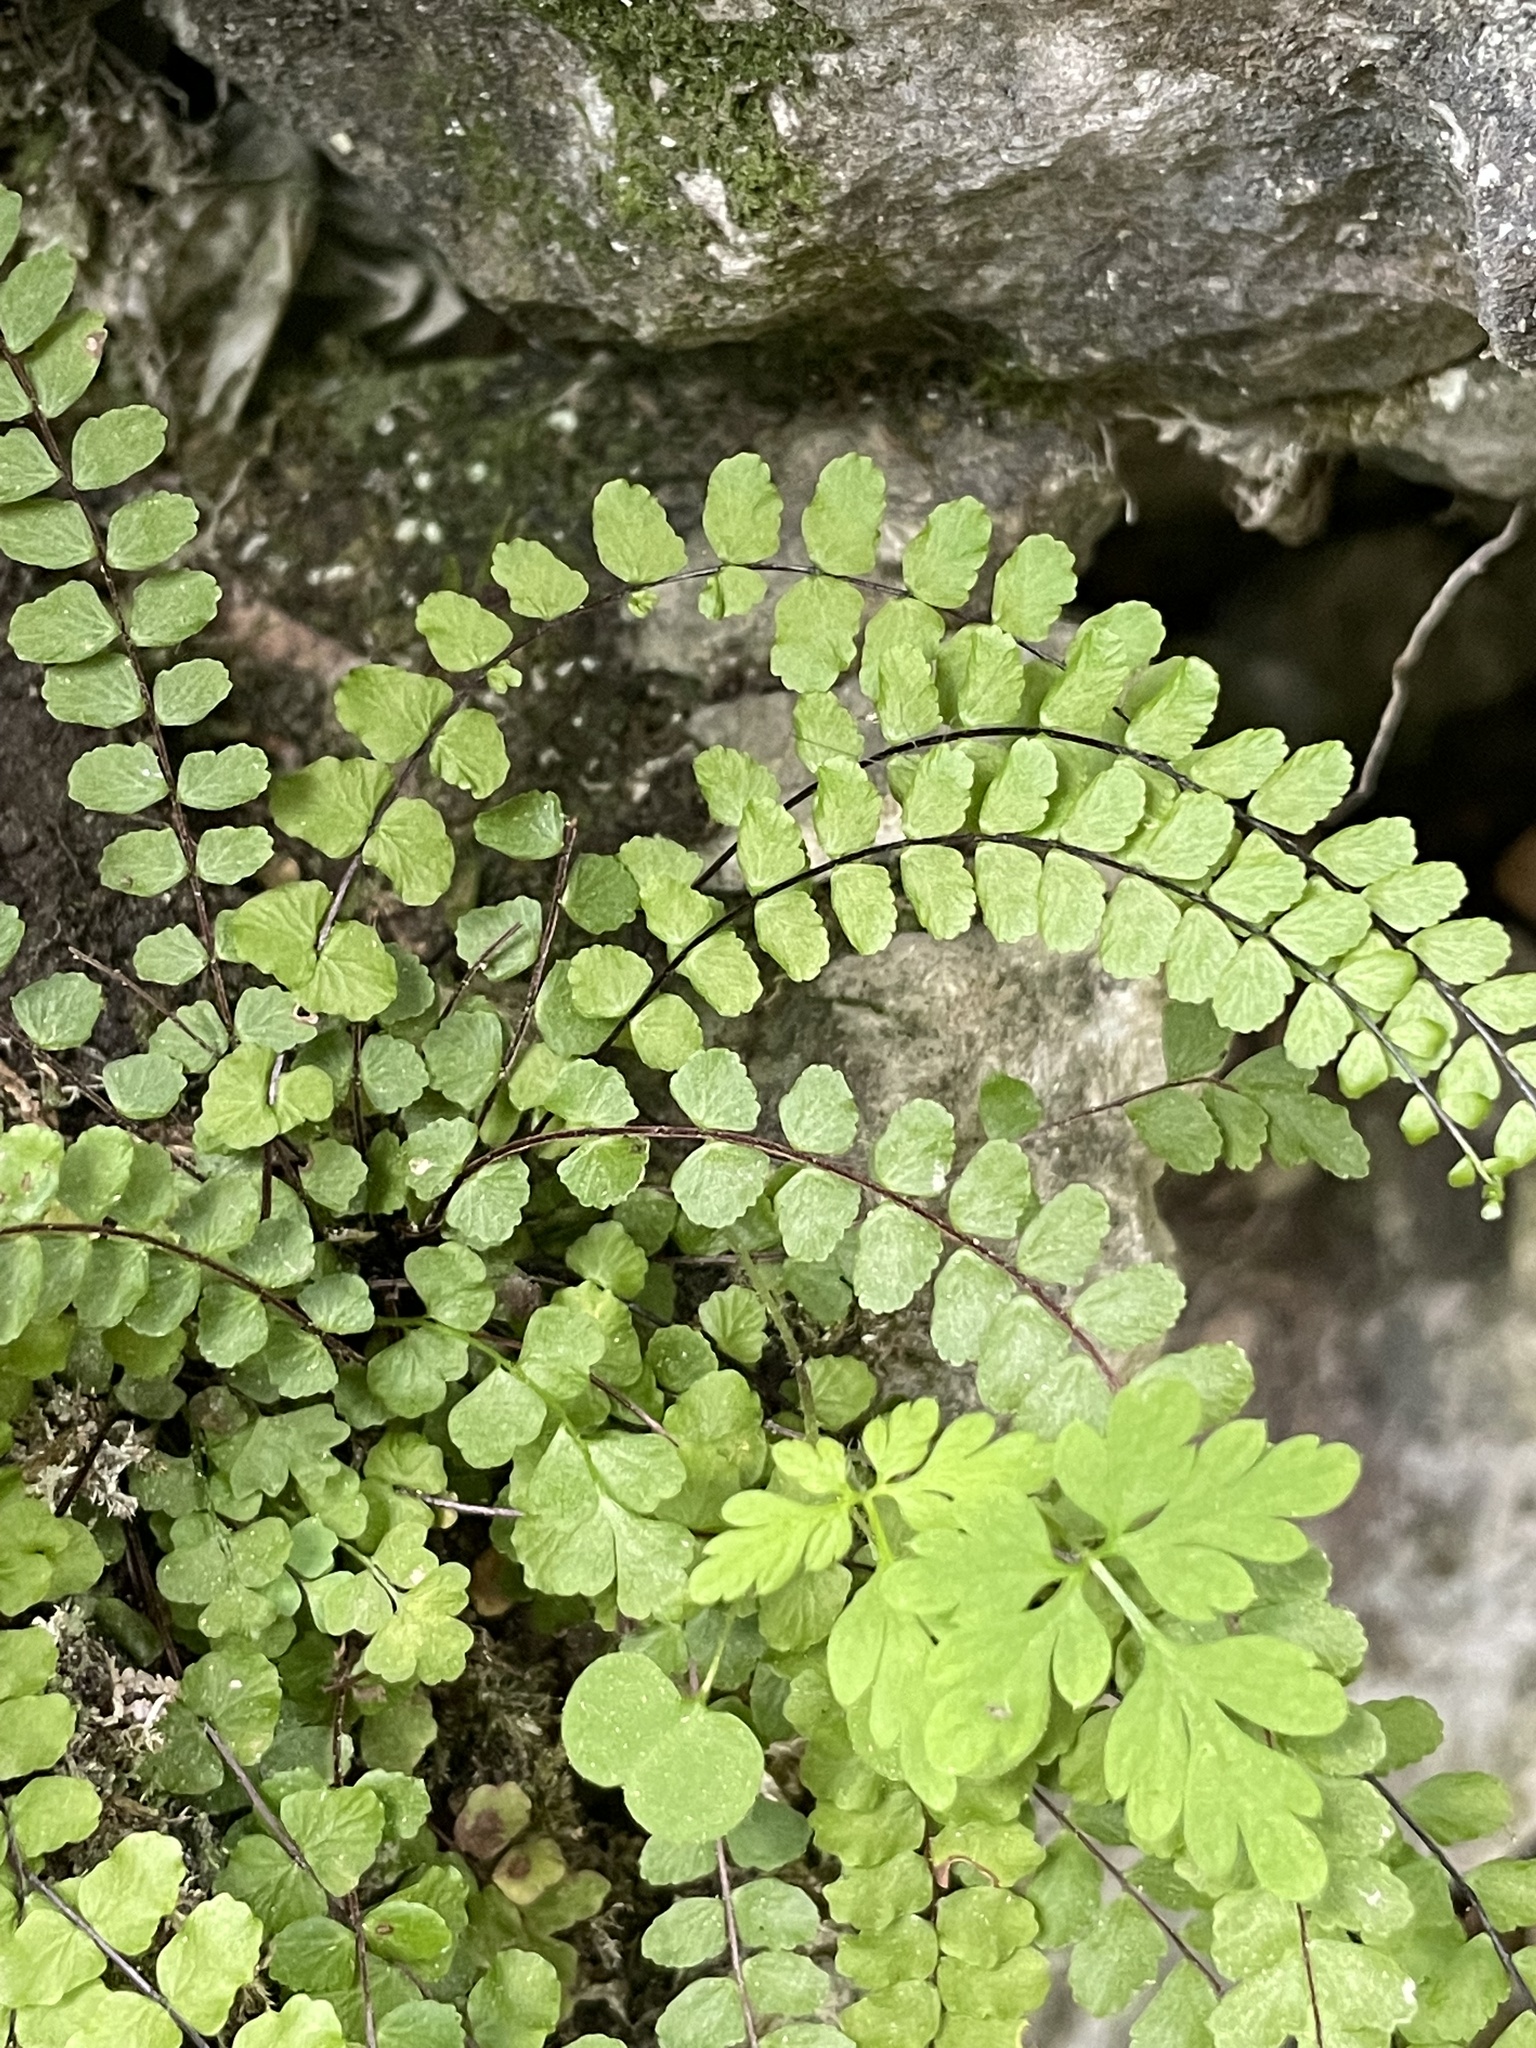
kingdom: Plantae
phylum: Tracheophyta
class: Polypodiopsida
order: Polypodiales
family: Aspleniaceae
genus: Asplenium
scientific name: Asplenium trichomanes
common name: Maidenhair spleenwort
